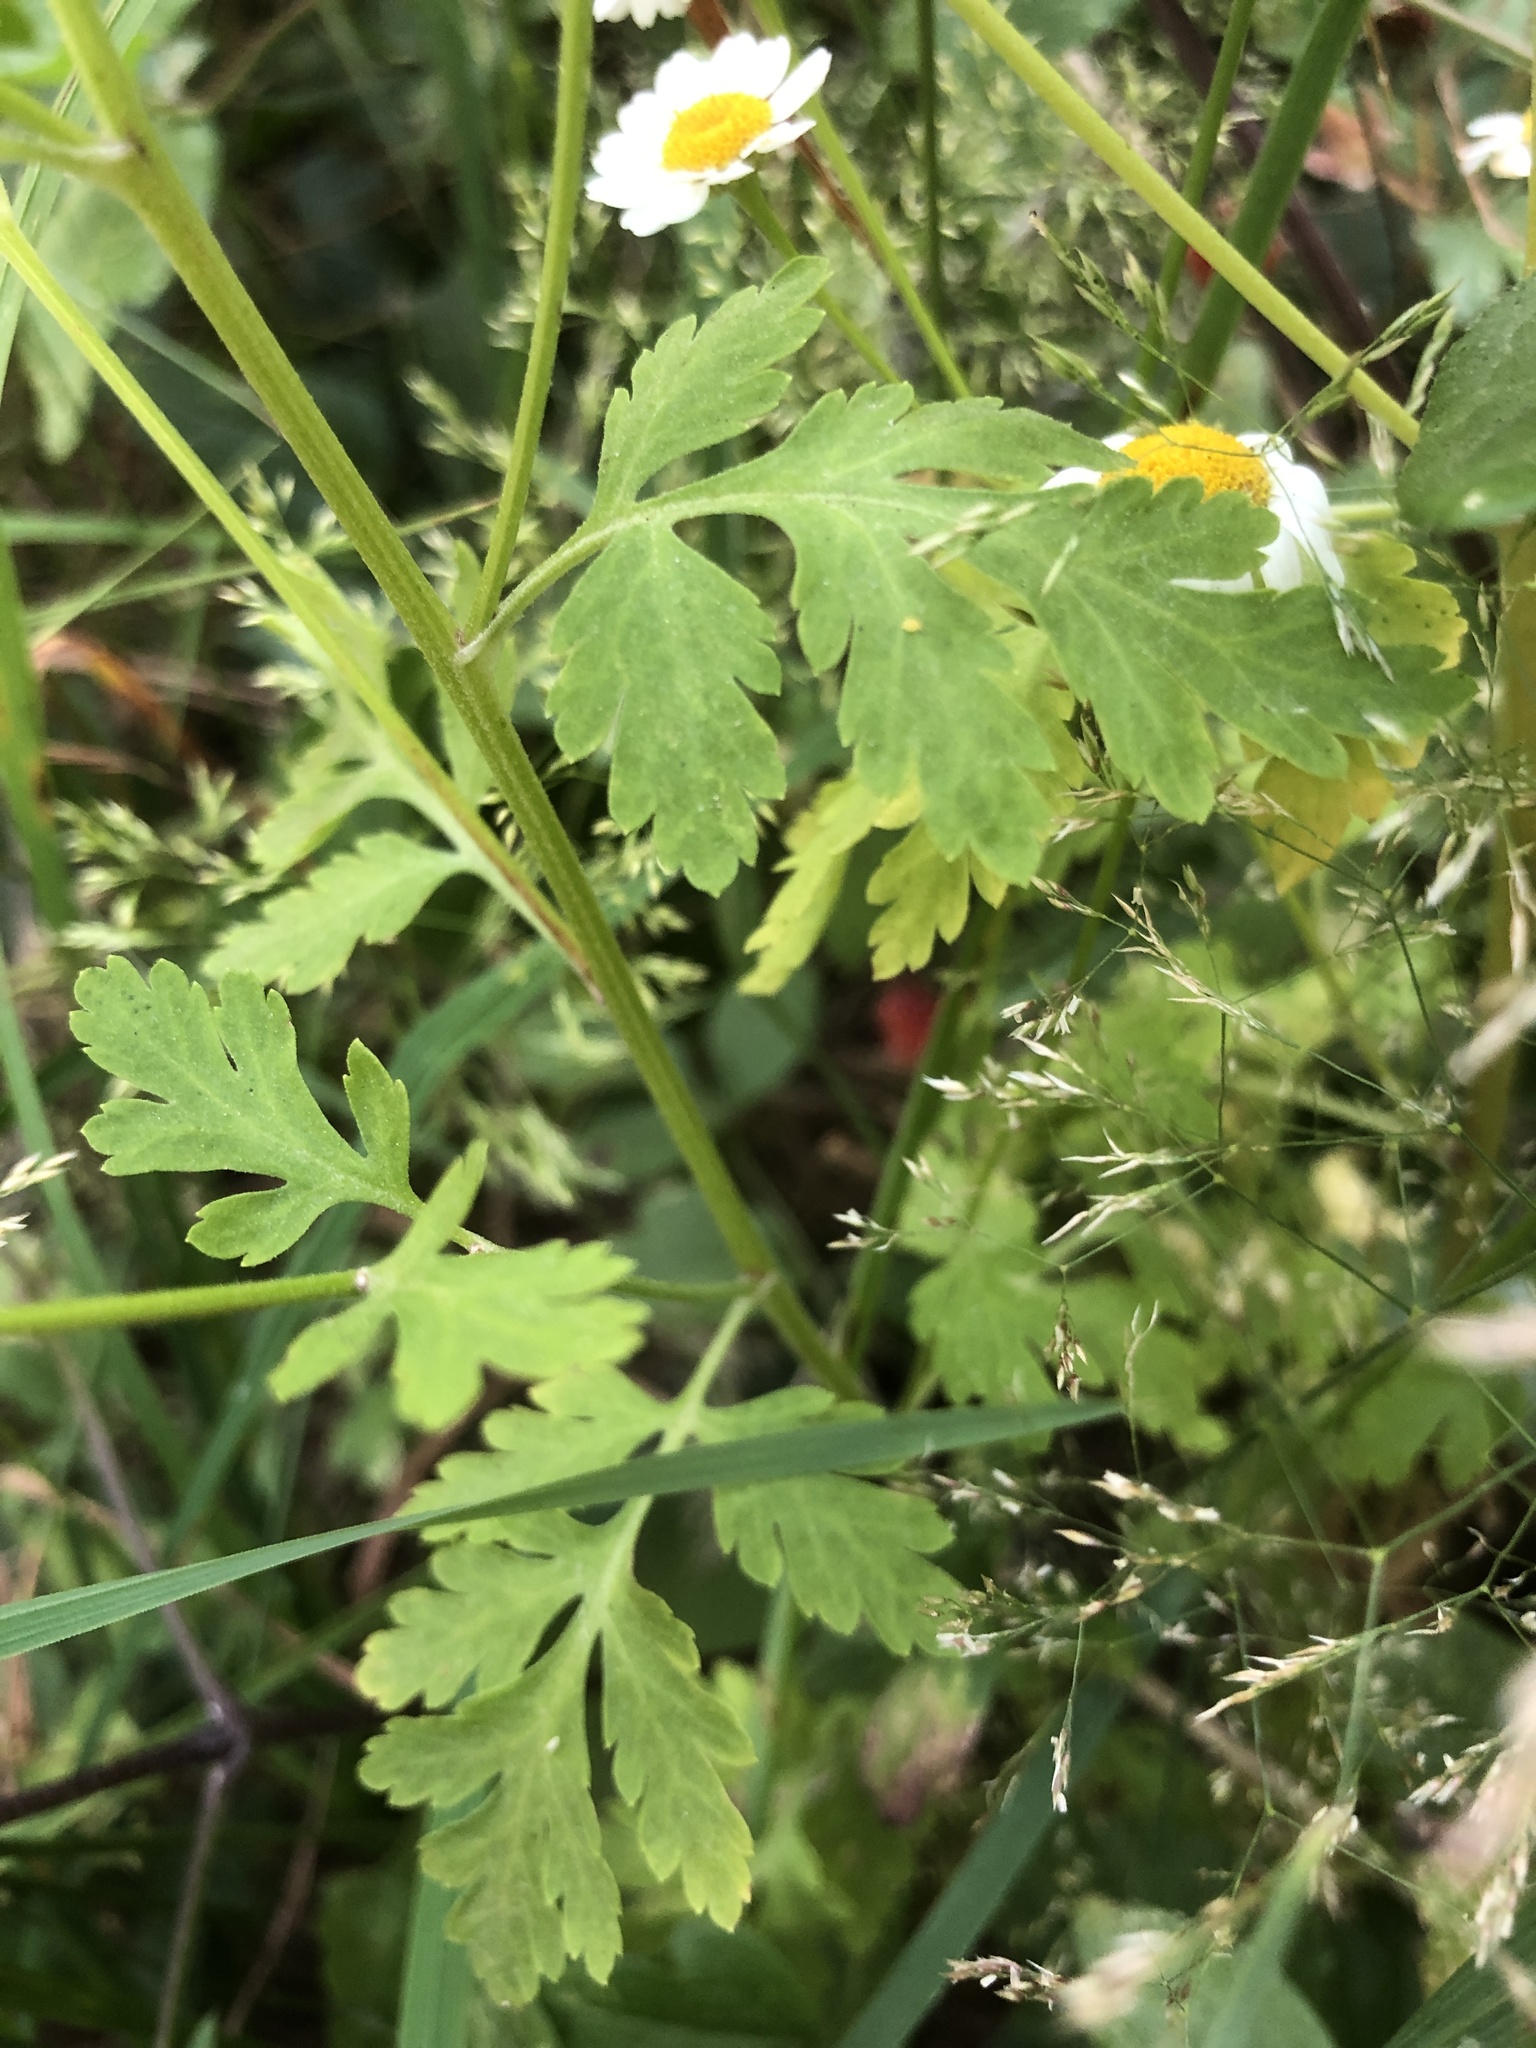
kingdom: Plantae
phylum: Tracheophyta
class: Magnoliopsida
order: Asterales
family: Asteraceae
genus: Tanacetum
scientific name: Tanacetum parthenium
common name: Feverfew
